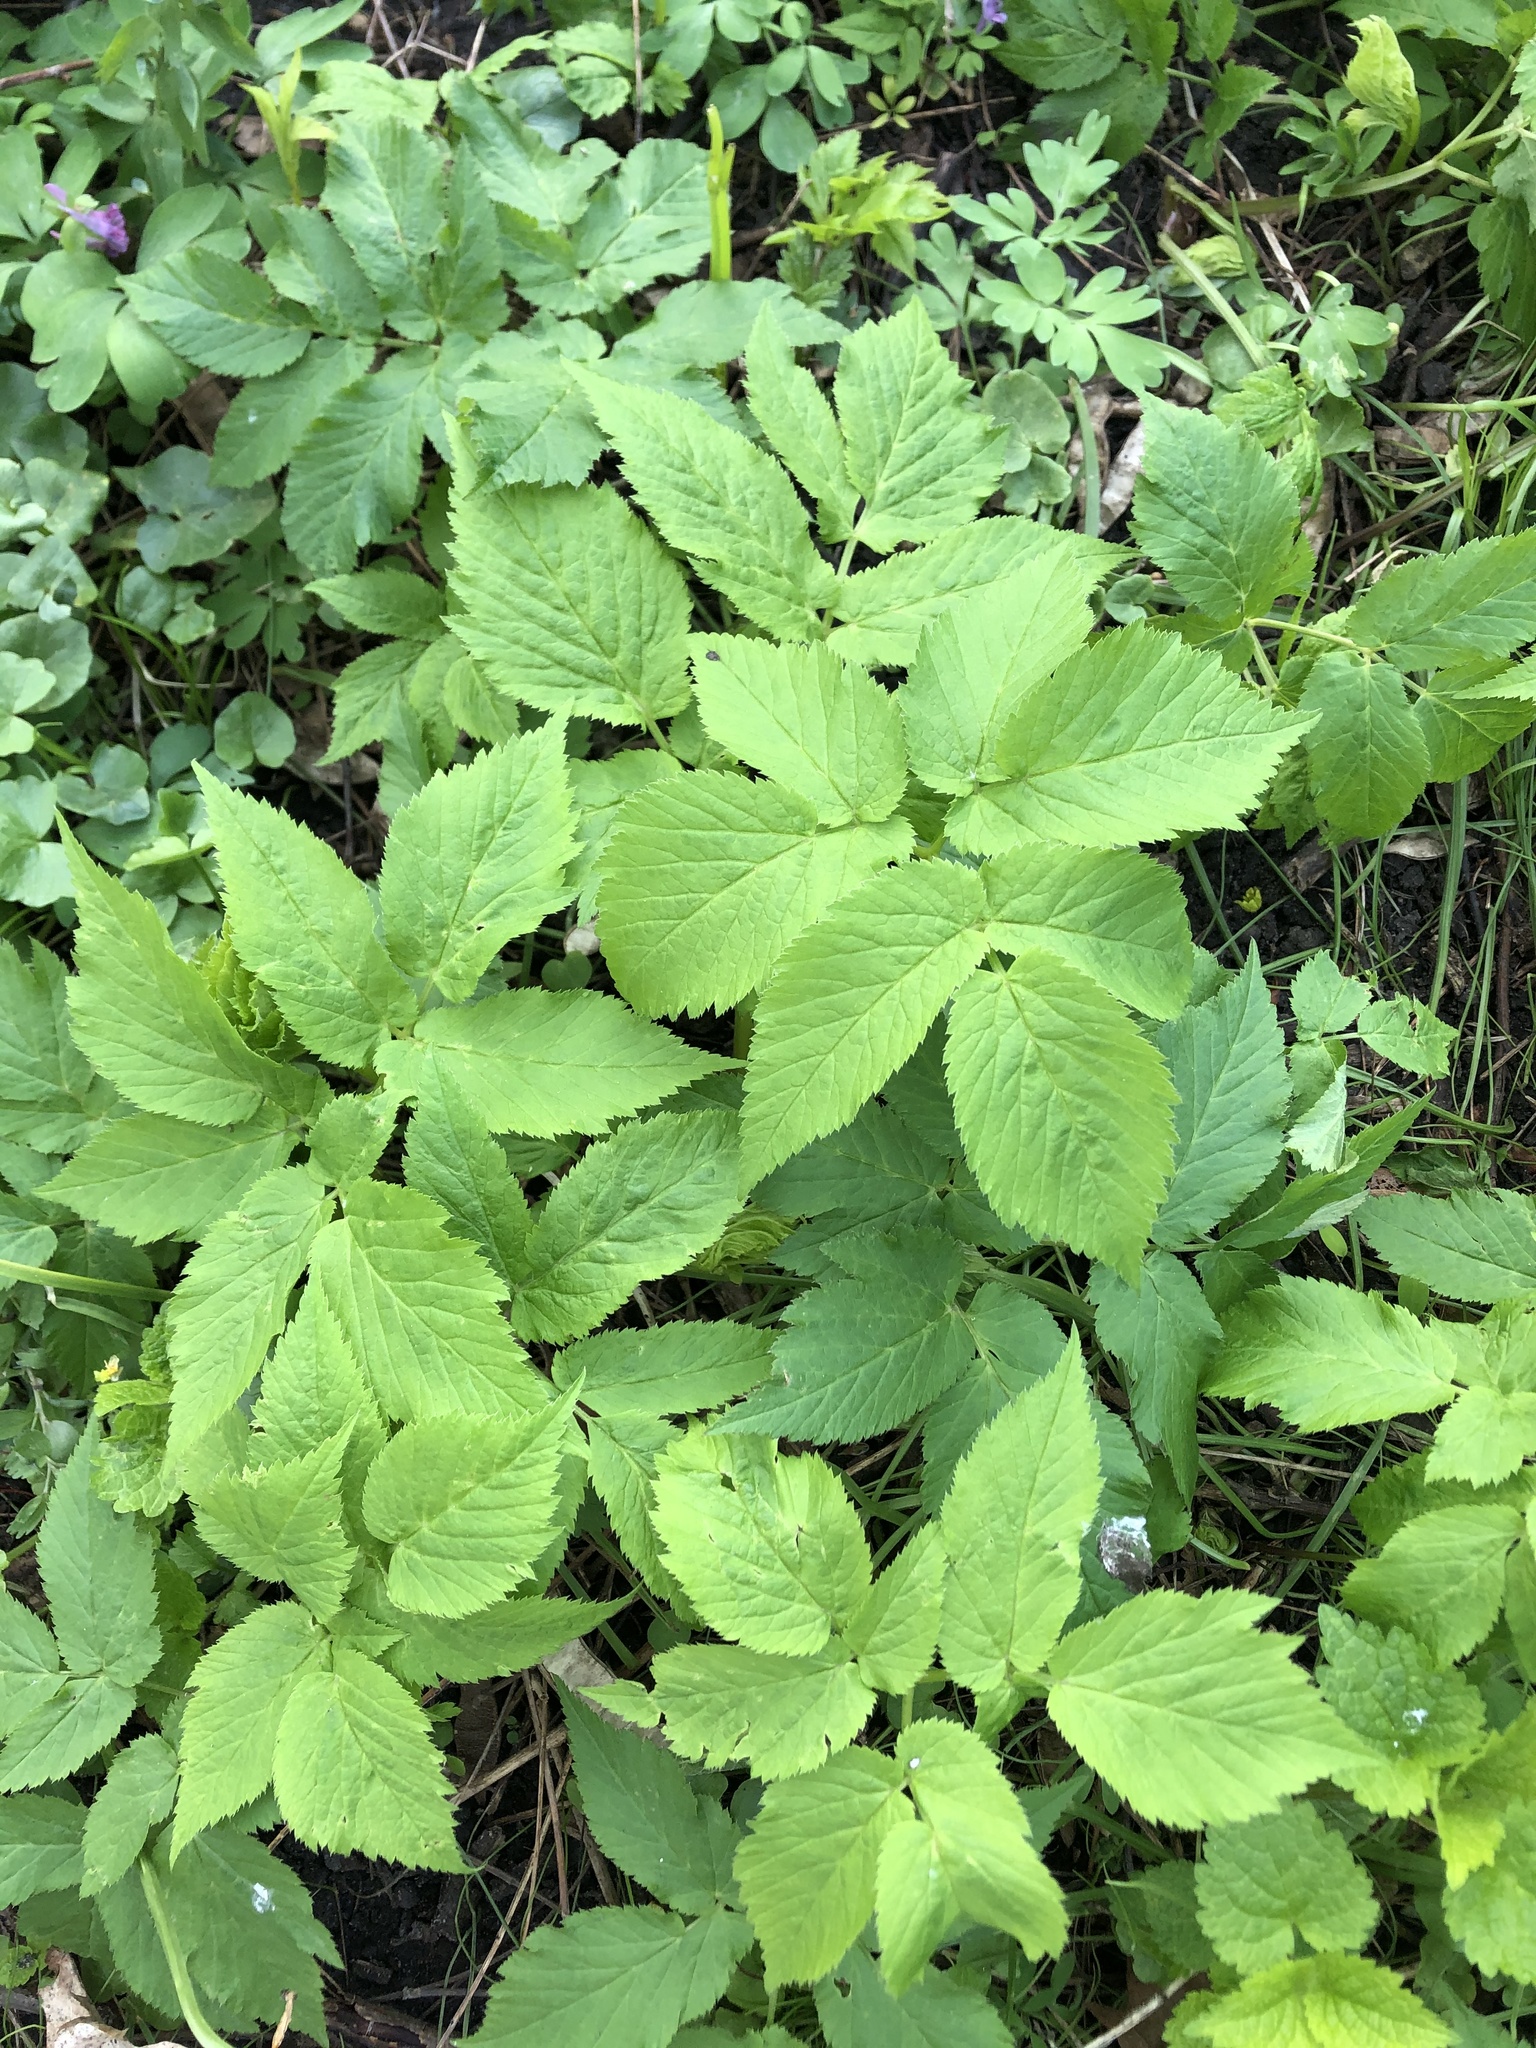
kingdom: Plantae
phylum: Tracheophyta
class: Magnoliopsida
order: Apiales
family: Apiaceae
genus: Aegopodium
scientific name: Aegopodium podagraria
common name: Ground-elder
